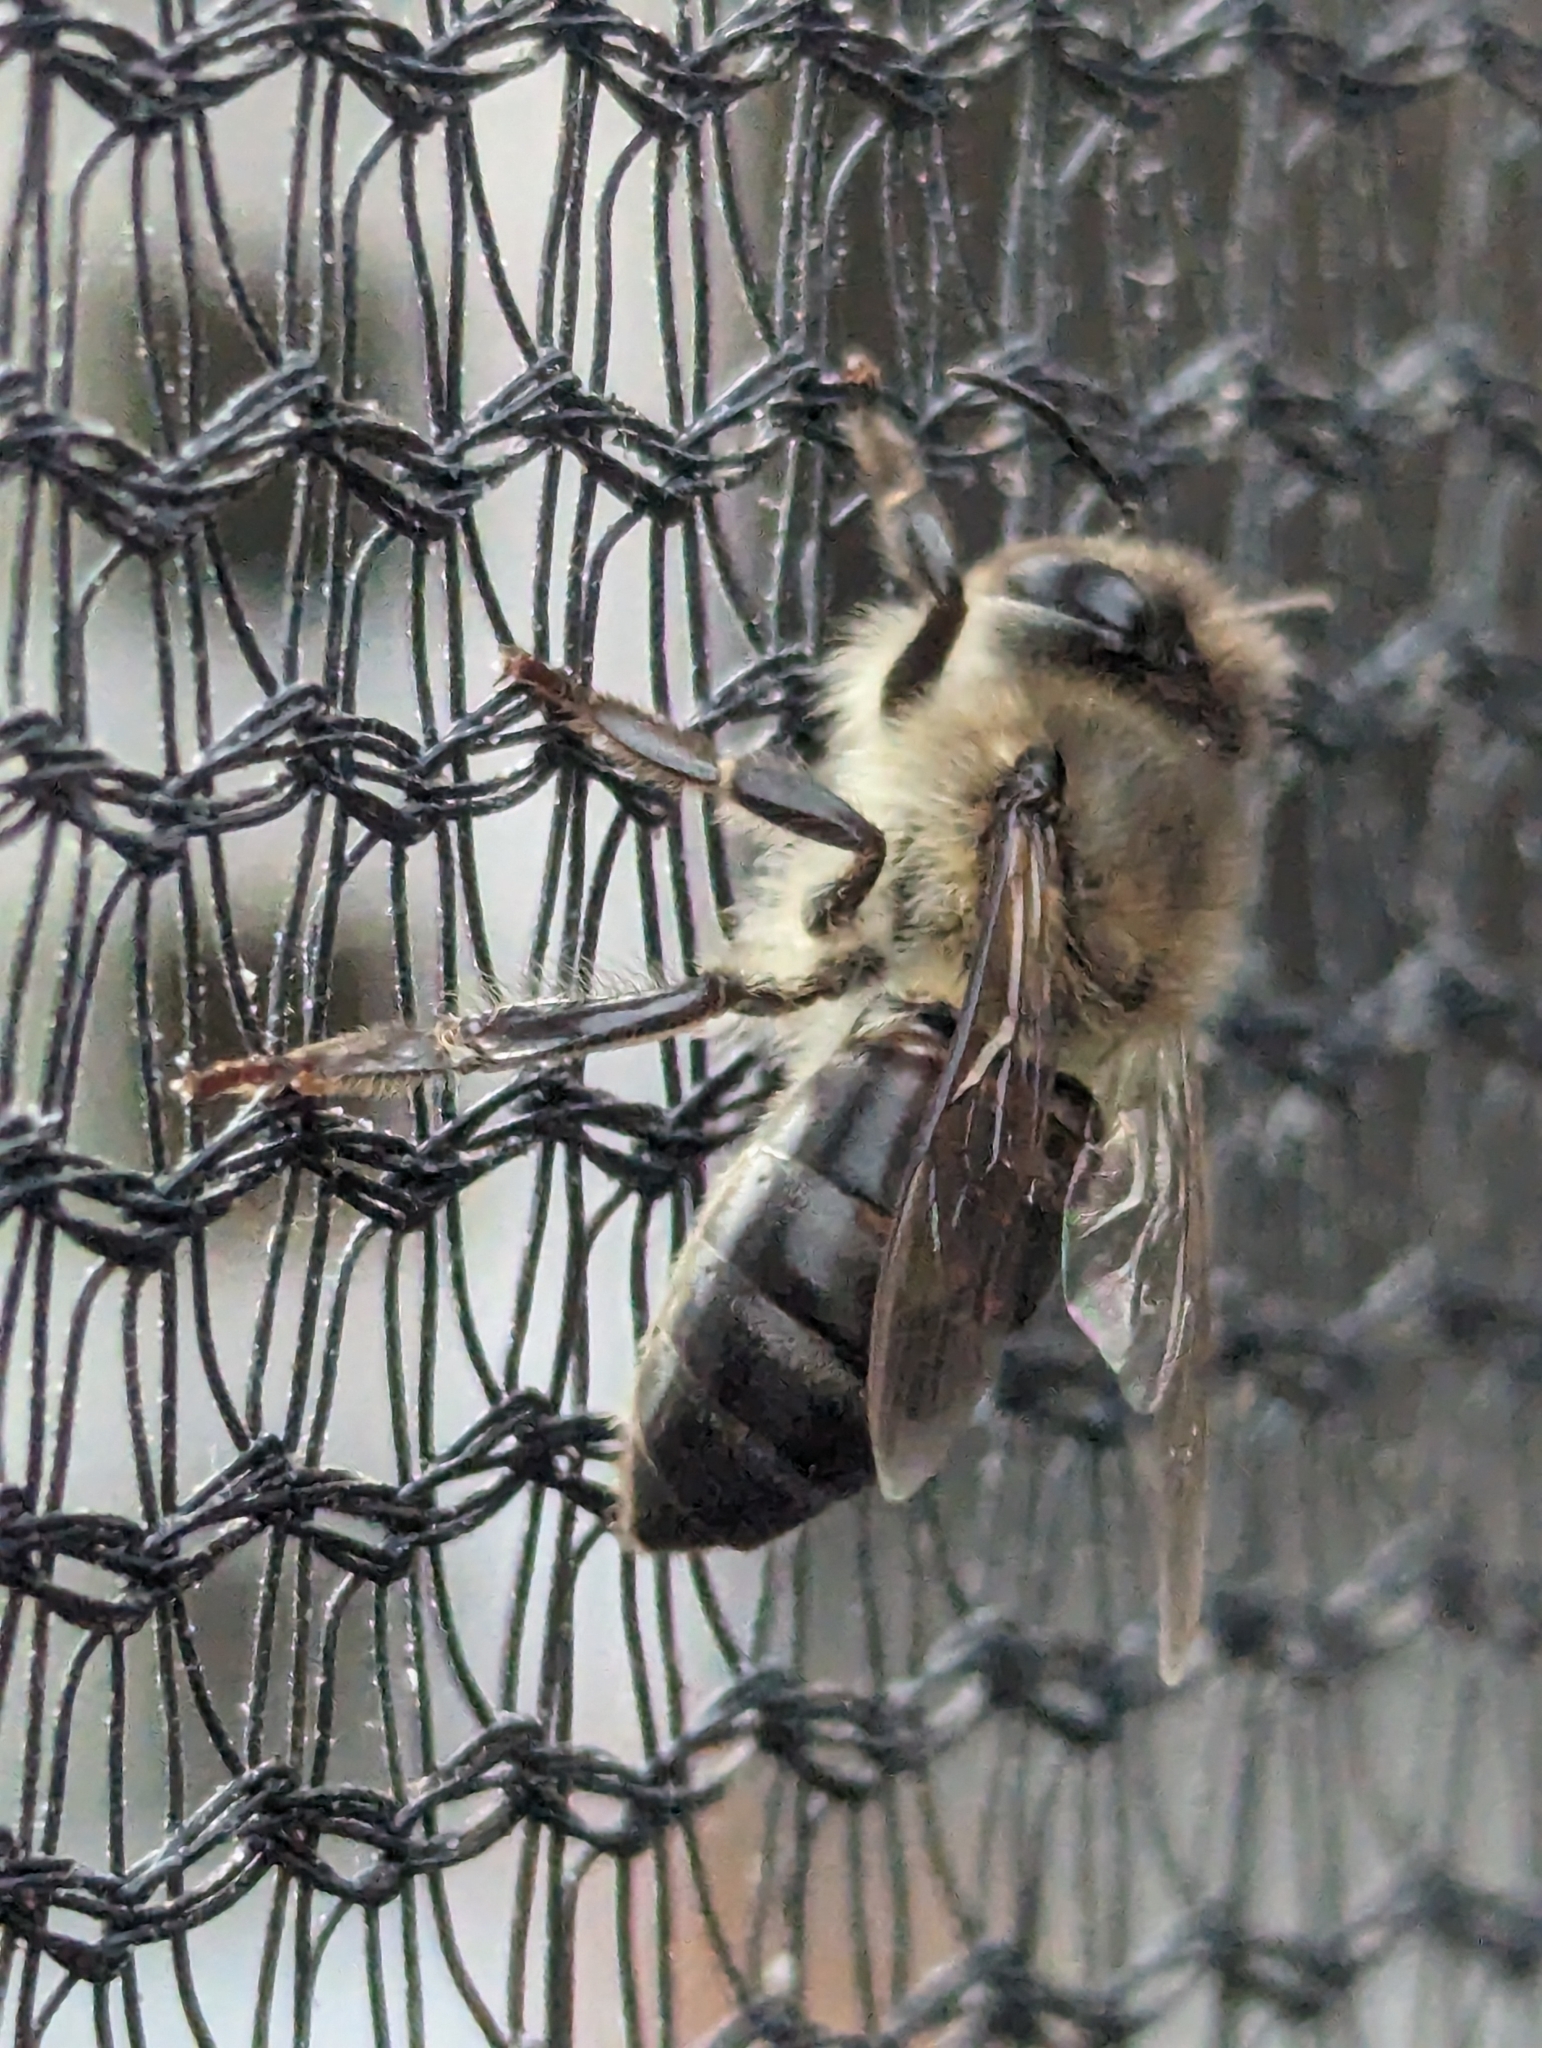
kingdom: Animalia
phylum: Arthropoda
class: Insecta
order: Hymenoptera
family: Apidae
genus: Apis
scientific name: Apis mellifera
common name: Honey bee
